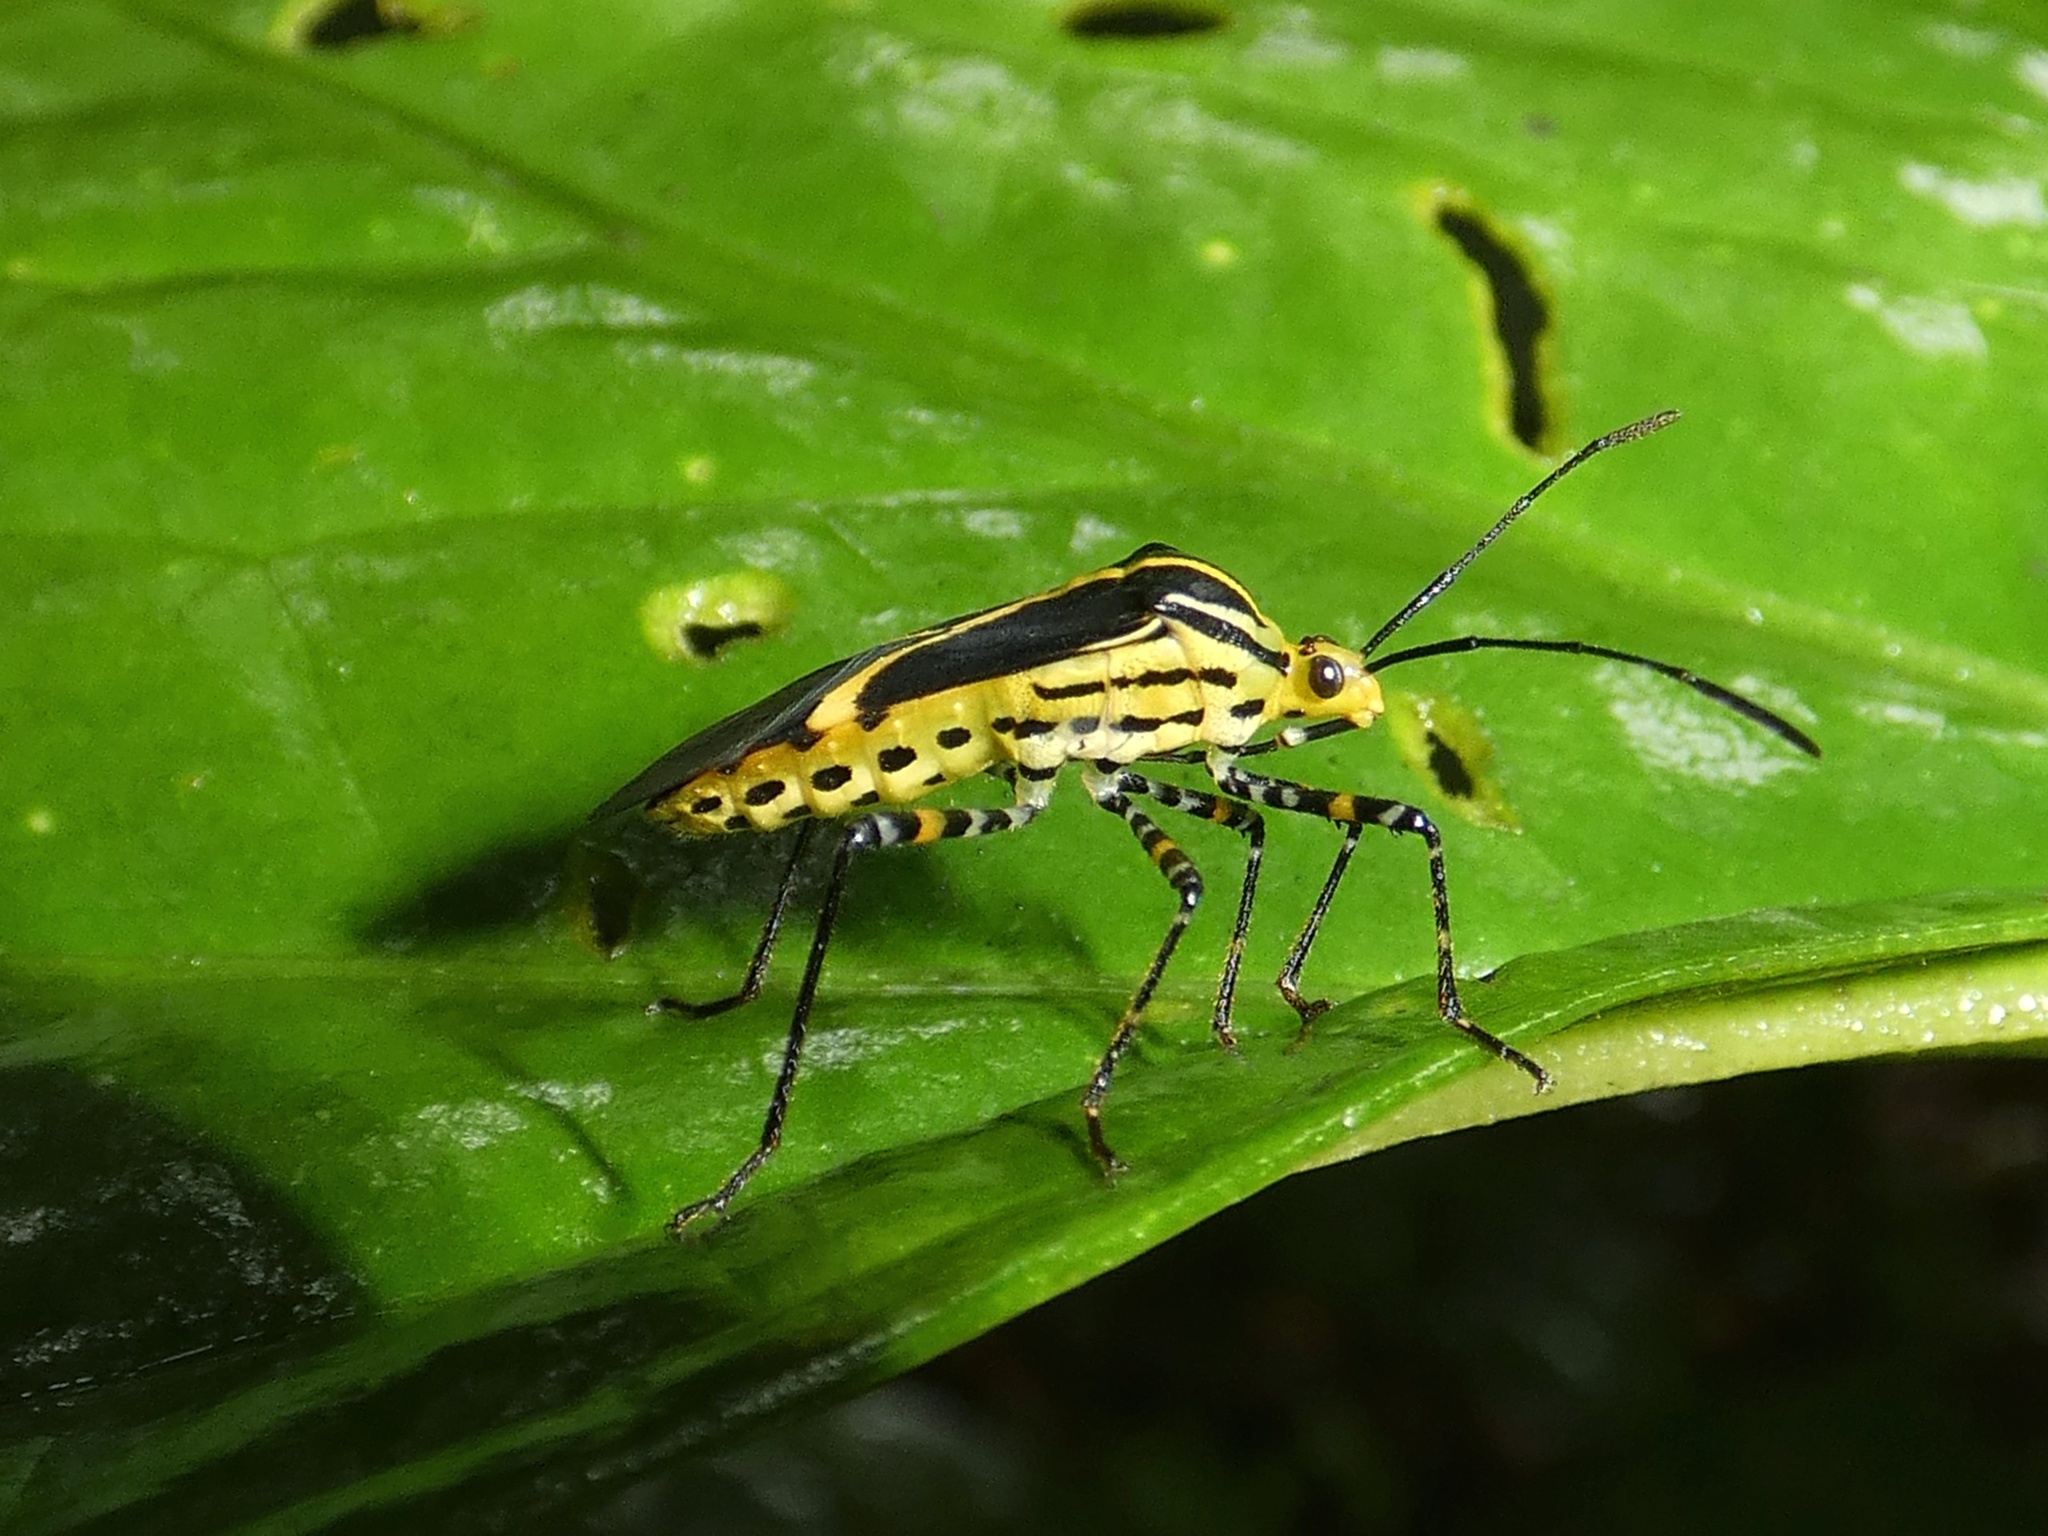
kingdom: Animalia
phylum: Arthropoda
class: Insecta
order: Hemiptera
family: Coreidae
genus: Hypselonotus
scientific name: Hypselonotus linea
